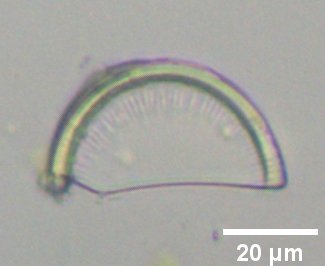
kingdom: Chromista
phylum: Ochrophyta
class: Bacillariophyceae
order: Melosirales
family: Melosiraceae
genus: Melosira
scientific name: Melosira arenaria
